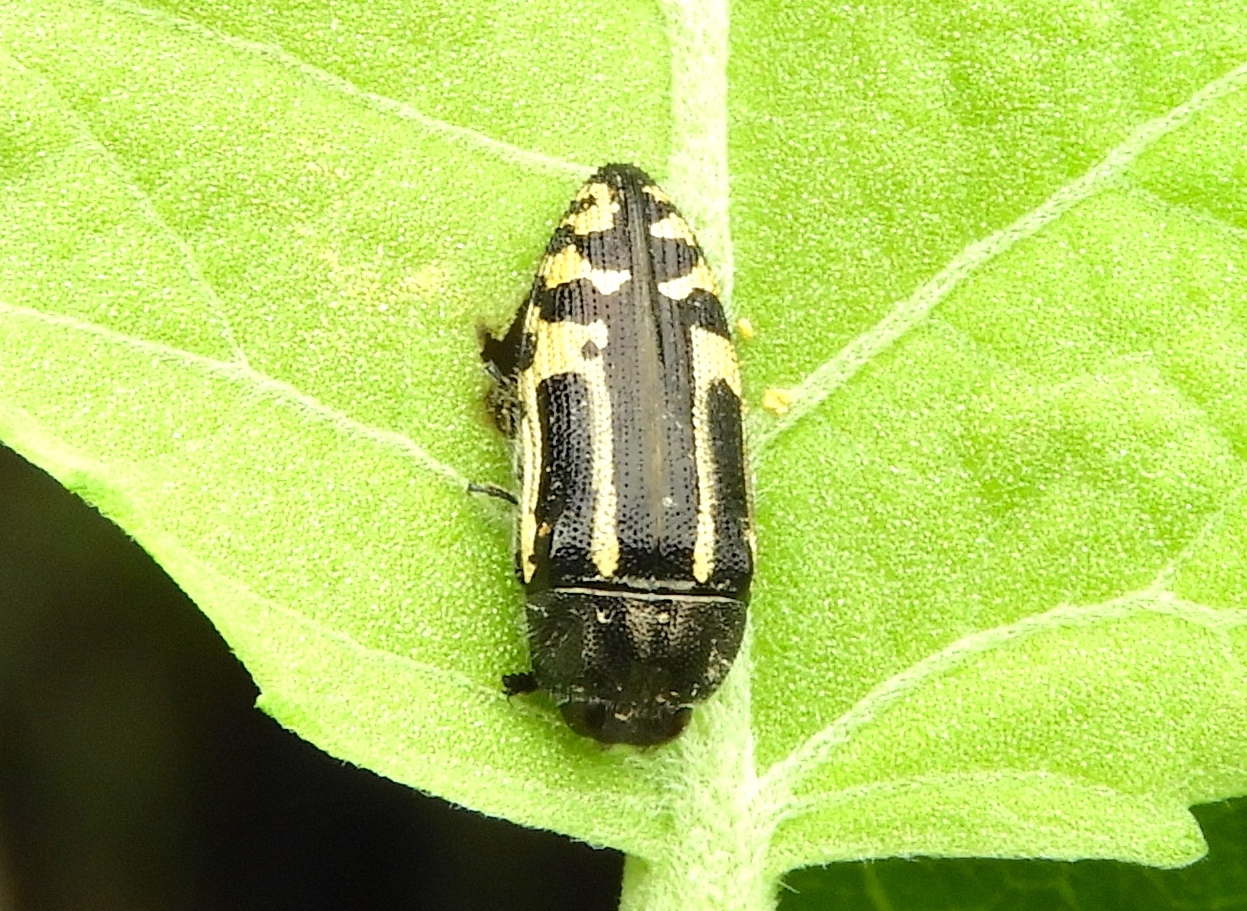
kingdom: Animalia
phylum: Arthropoda
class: Insecta
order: Coleoptera
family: Buprestidae
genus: Acmaeodera
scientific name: Acmaeodera scalaris
